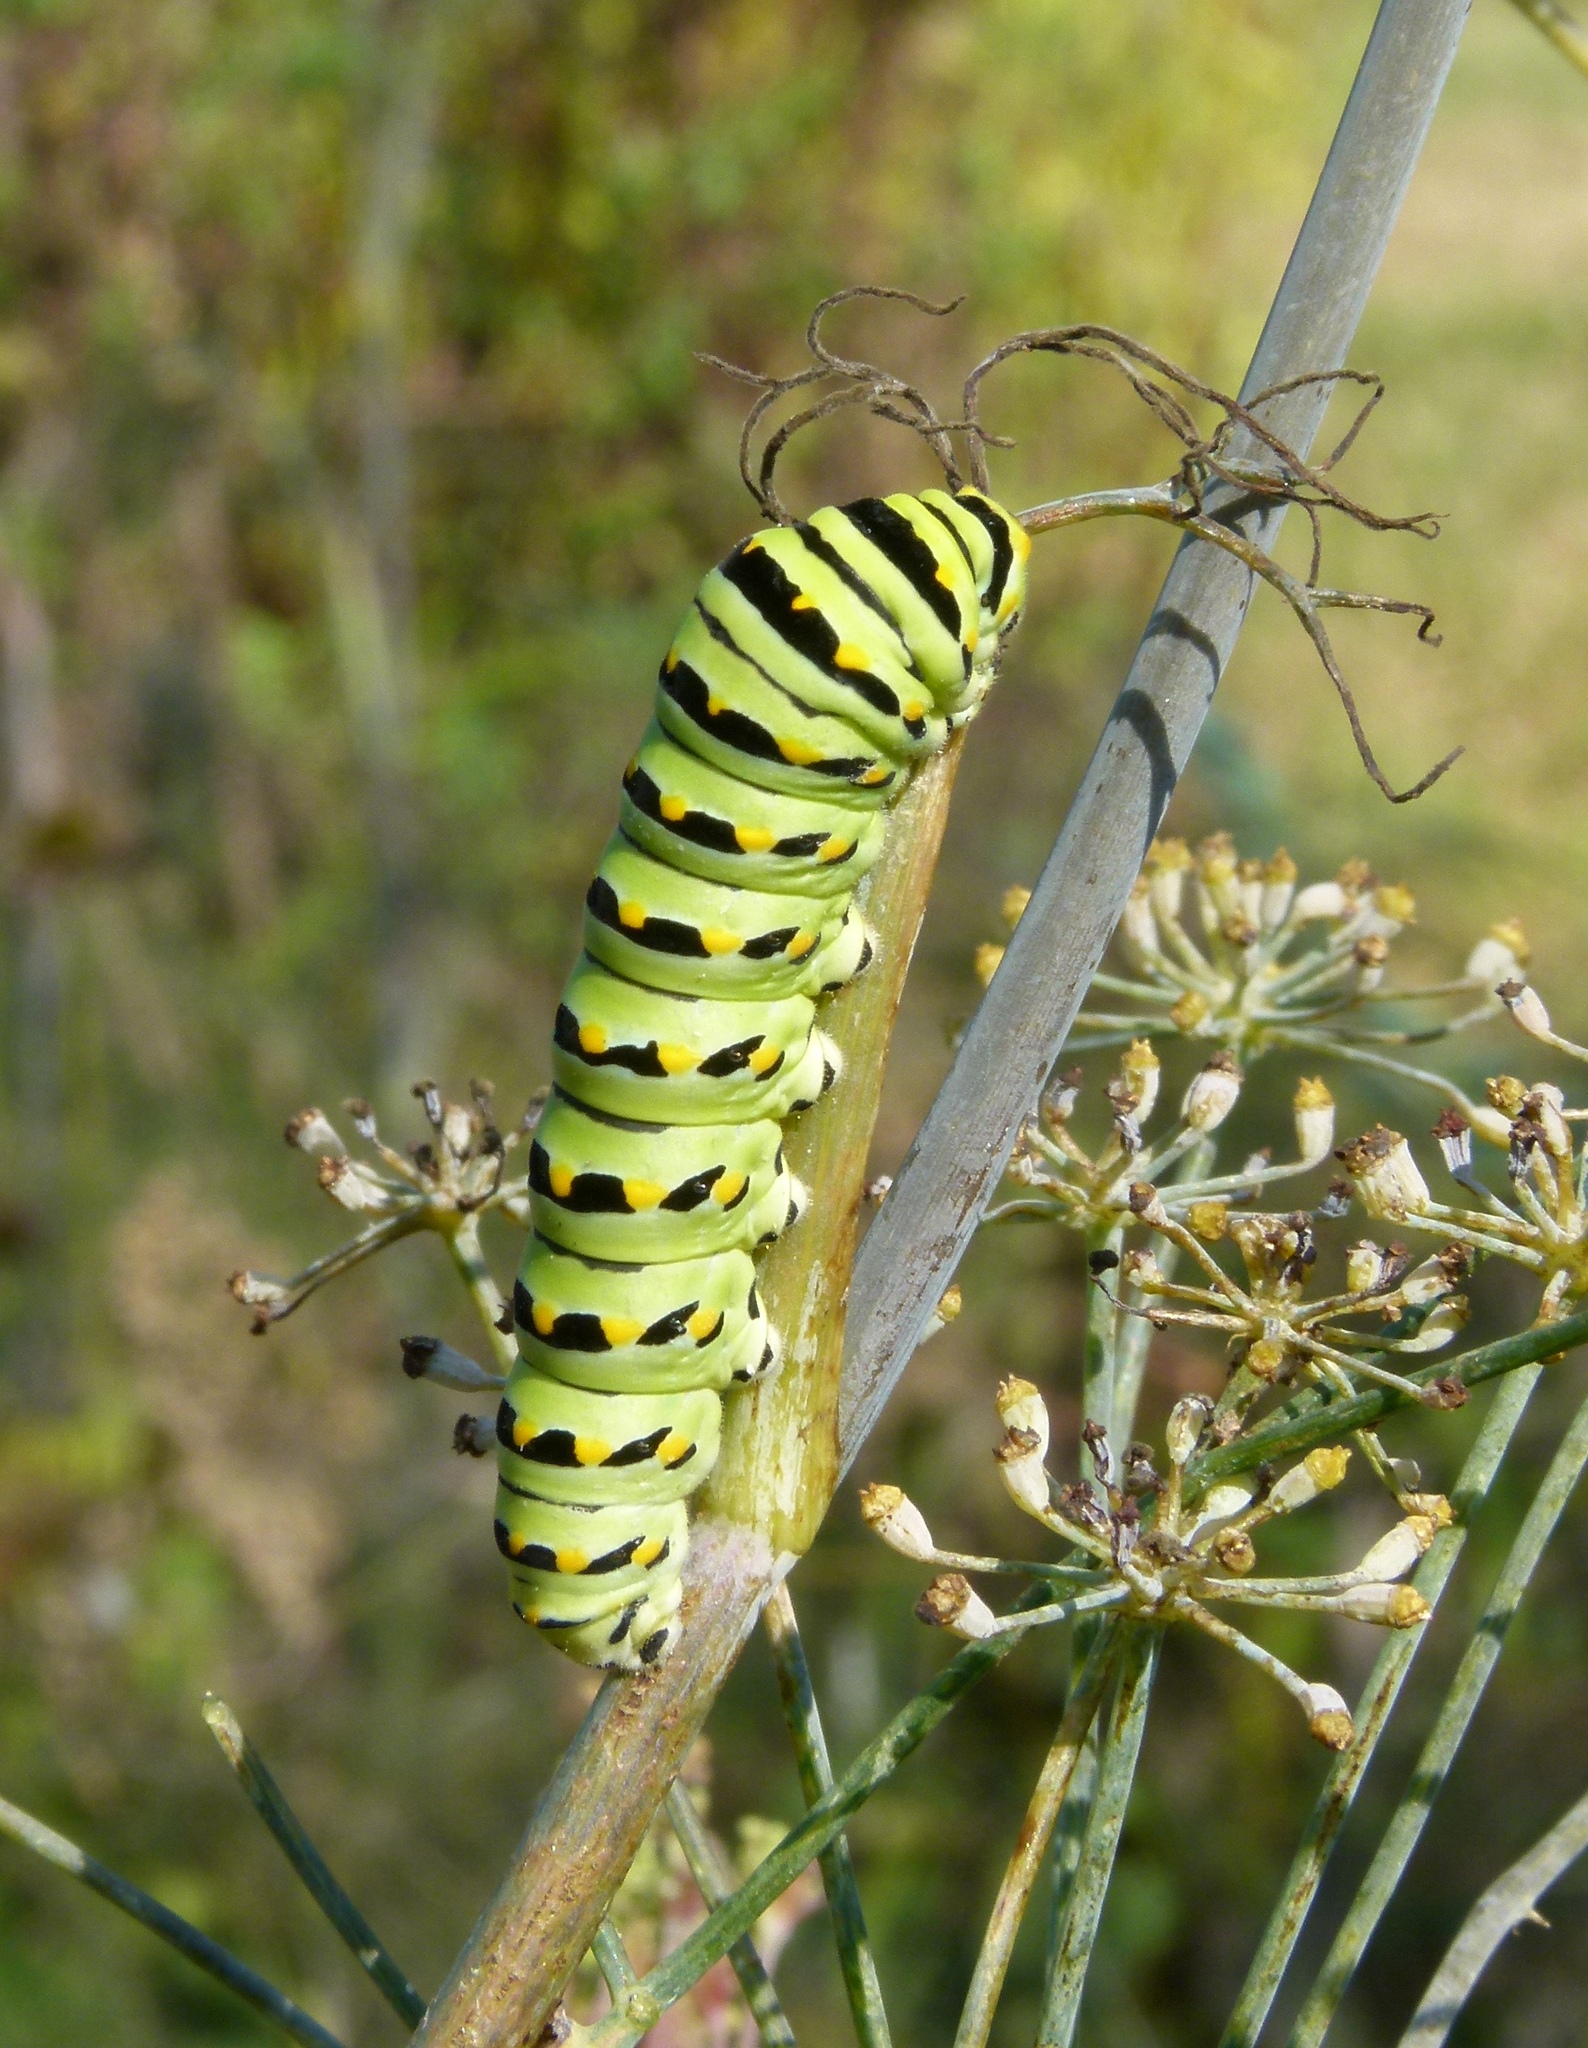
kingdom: Animalia
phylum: Arthropoda
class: Insecta
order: Lepidoptera
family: Papilionidae
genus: Papilio
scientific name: Papilio polyxenes
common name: Black swallowtail
